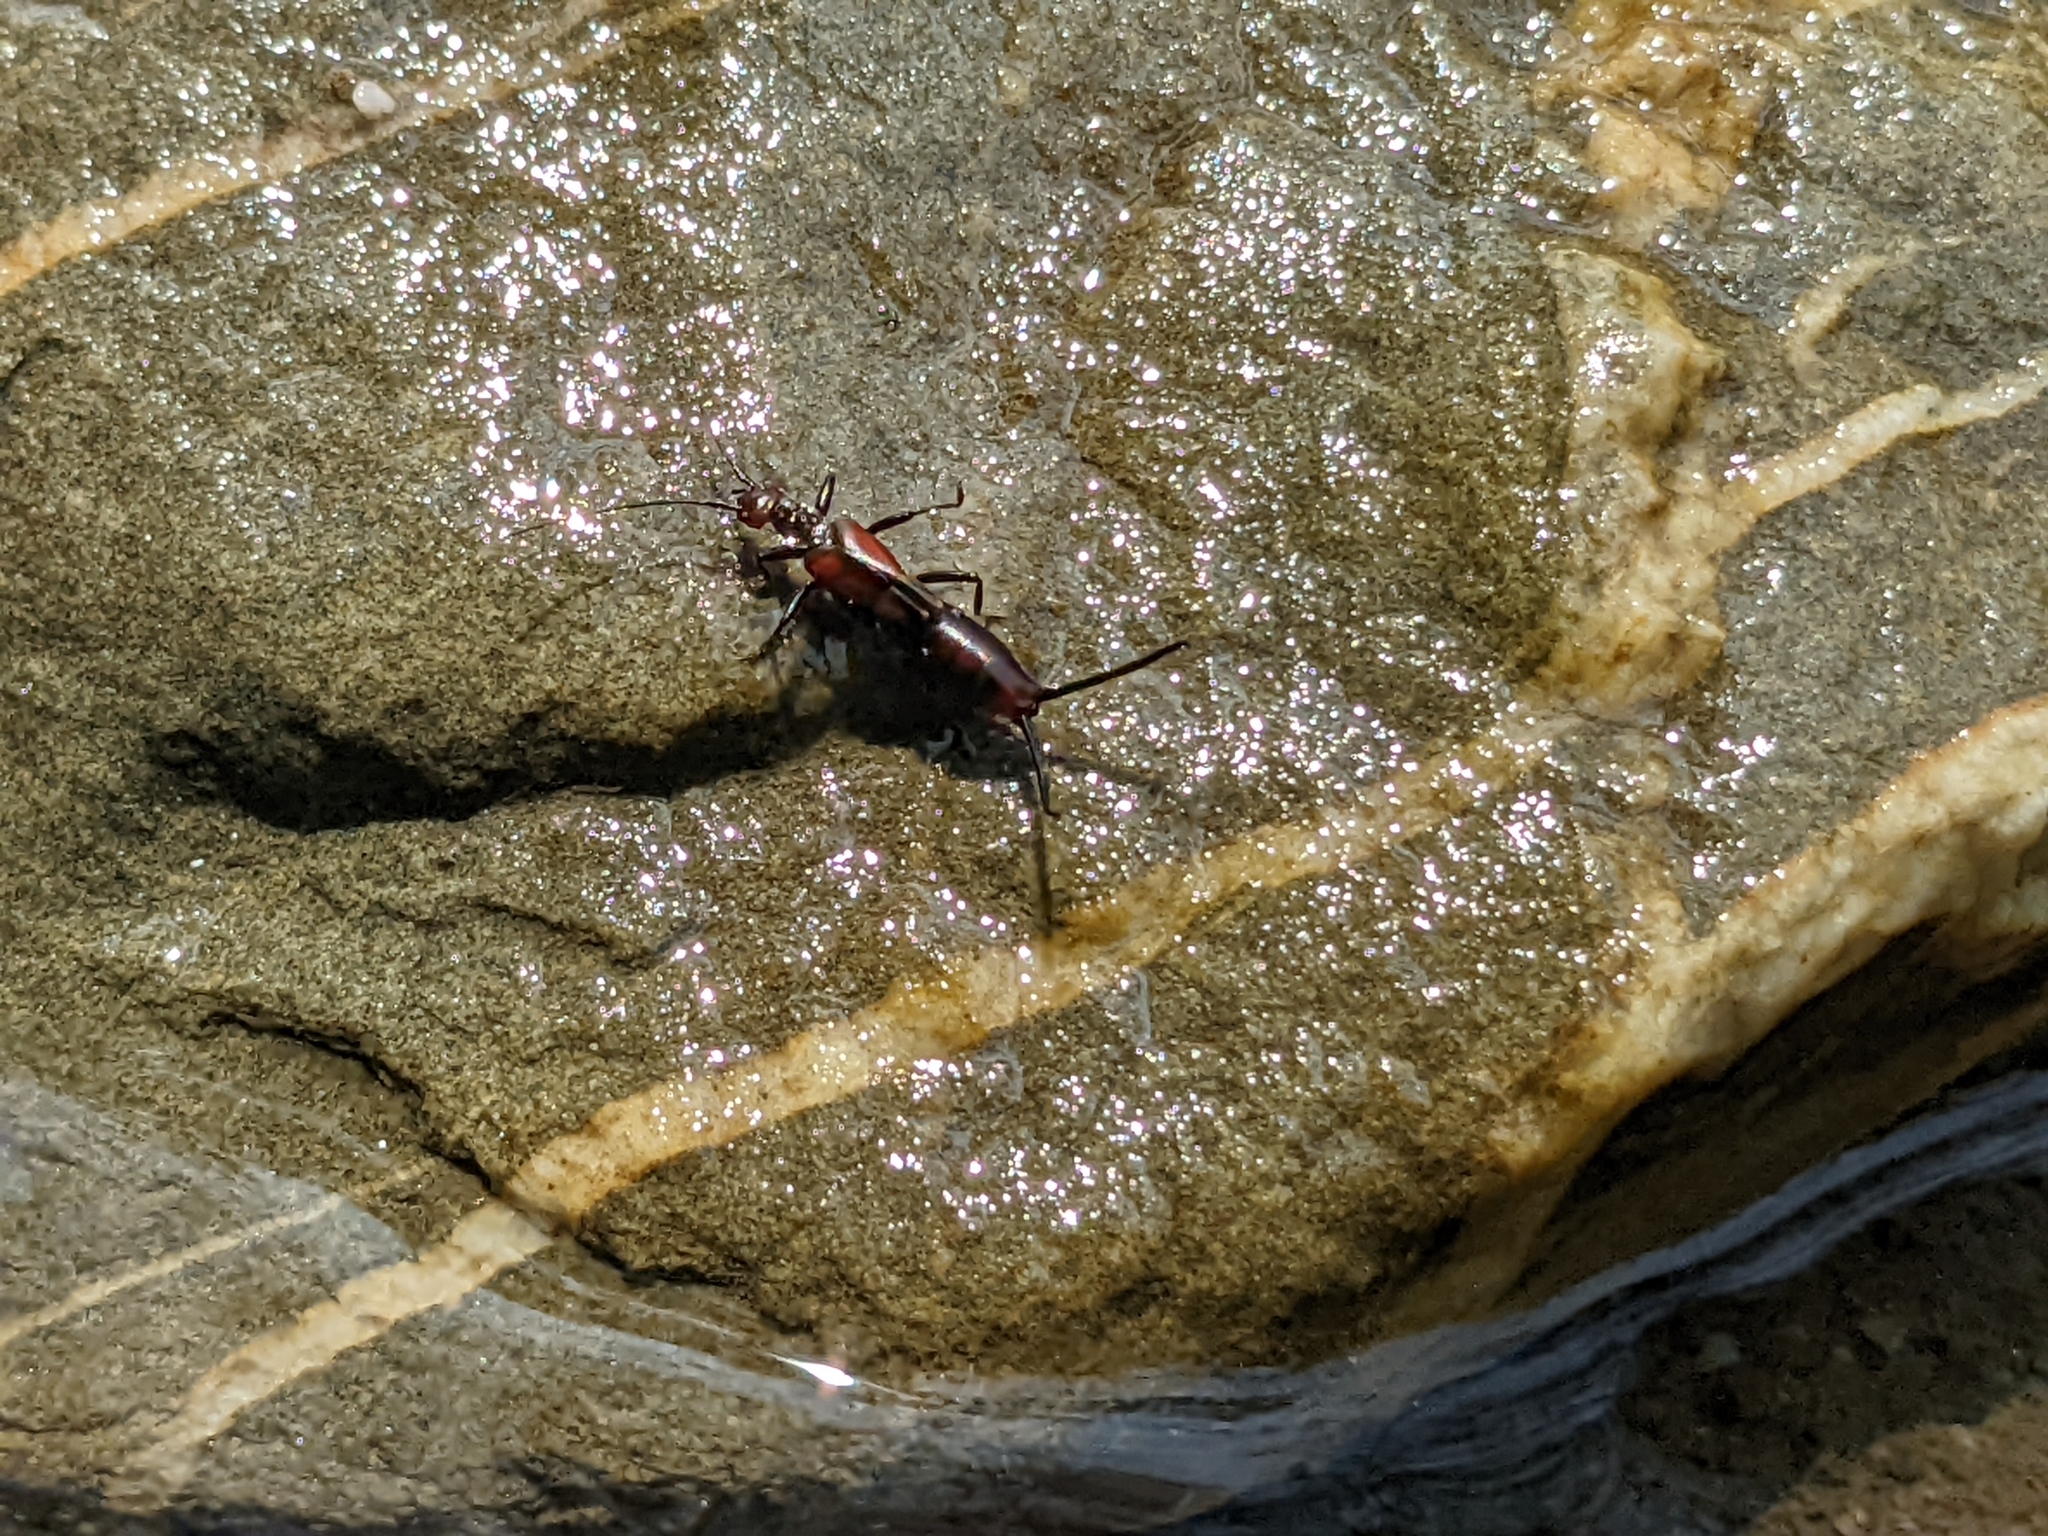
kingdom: Animalia
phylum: Arthropoda
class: Insecta
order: Dermaptera
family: Forficulidae
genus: Timomenus
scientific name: Timomenus komarovi
